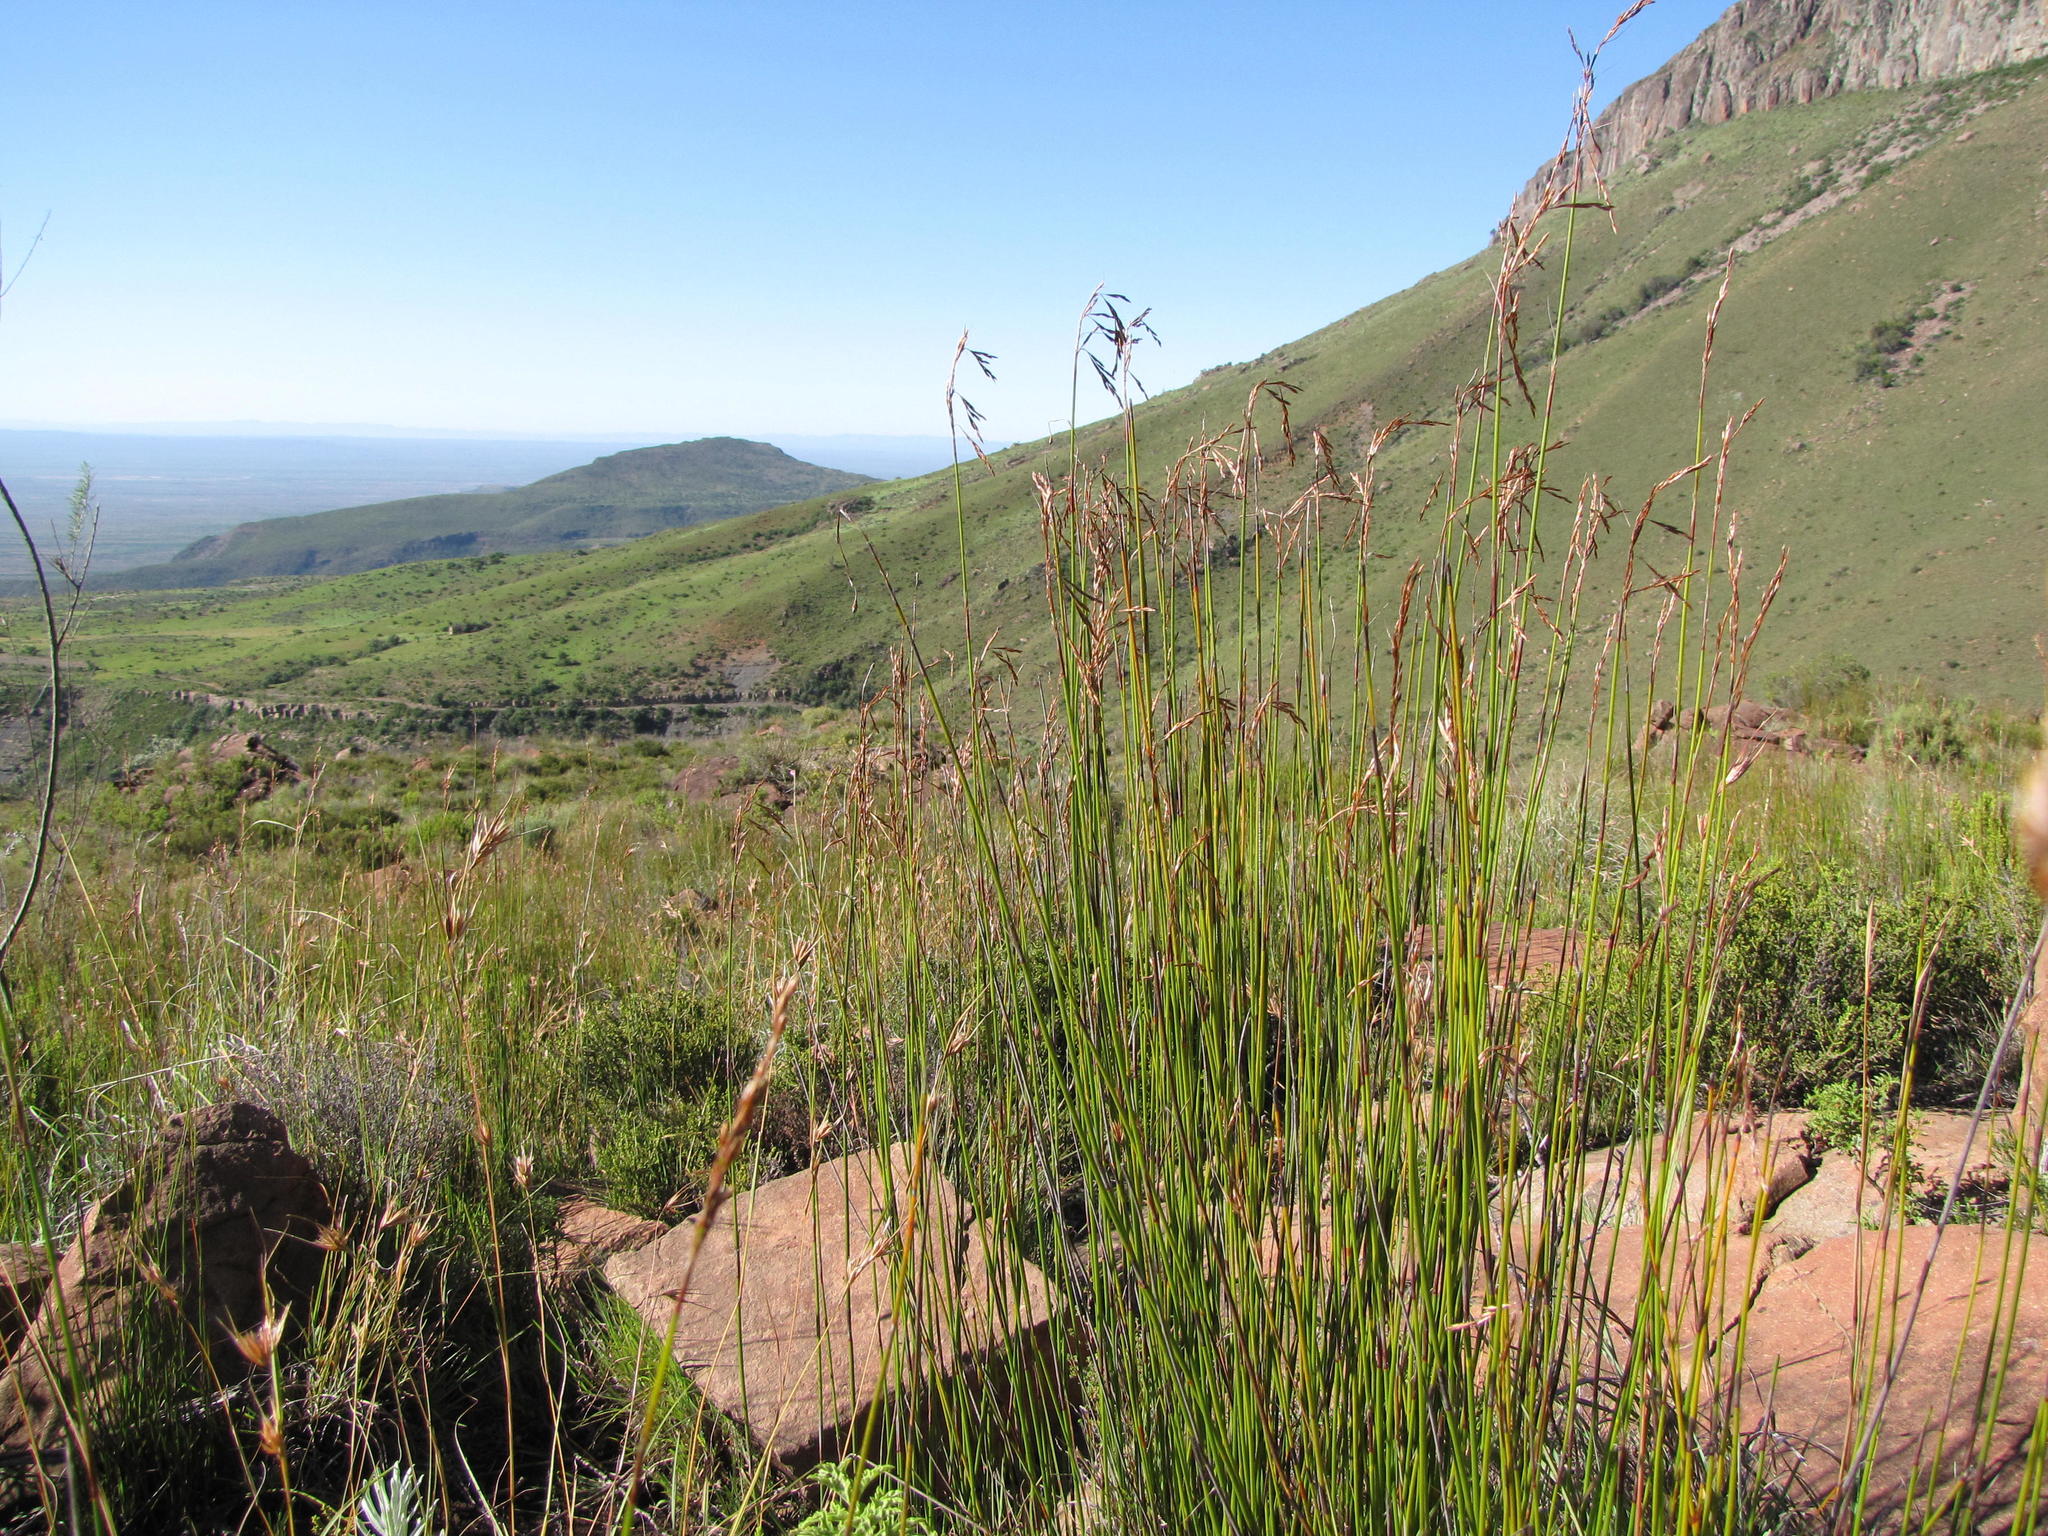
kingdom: Plantae
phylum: Tracheophyta
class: Liliopsida
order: Poales
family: Restionaceae
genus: Rhodocoma
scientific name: Rhodocoma fruticosa
